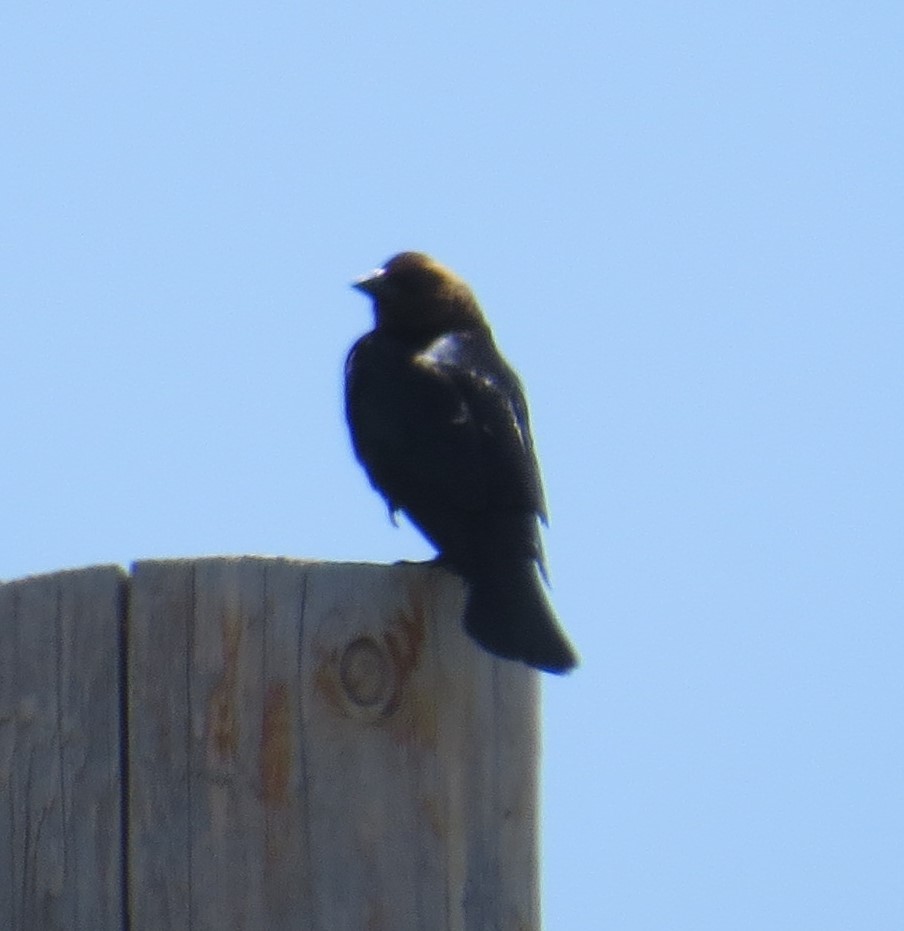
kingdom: Animalia
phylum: Chordata
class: Aves
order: Passeriformes
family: Icteridae
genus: Molothrus
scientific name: Molothrus ater
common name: Brown-headed cowbird
